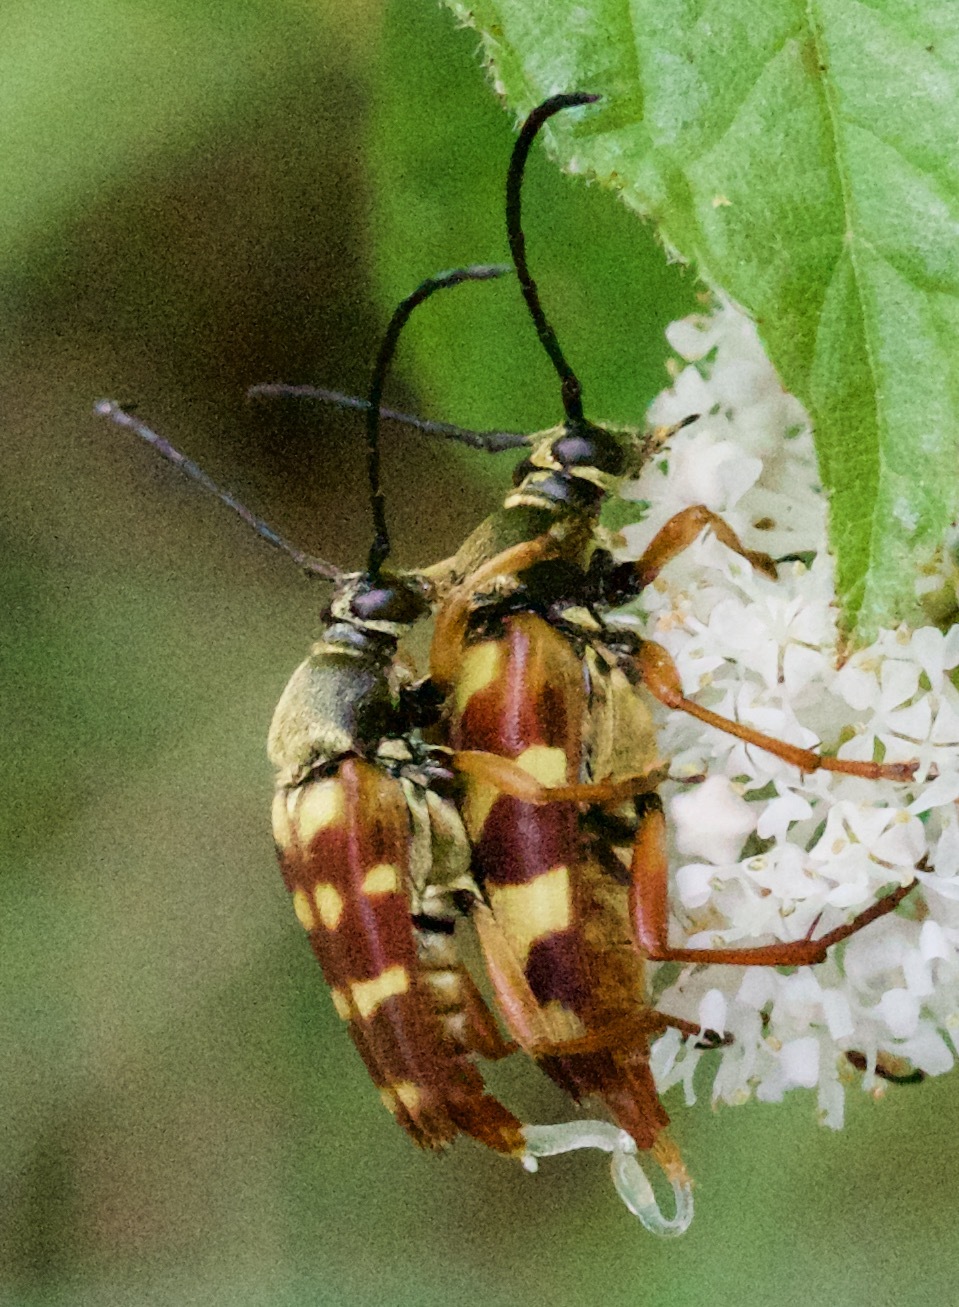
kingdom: Animalia
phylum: Arthropoda
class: Insecta
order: Coleoptera
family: Cerambycidae
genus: Typocerus
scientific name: Typocerus velutinus
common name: Banded longhorn beetle
